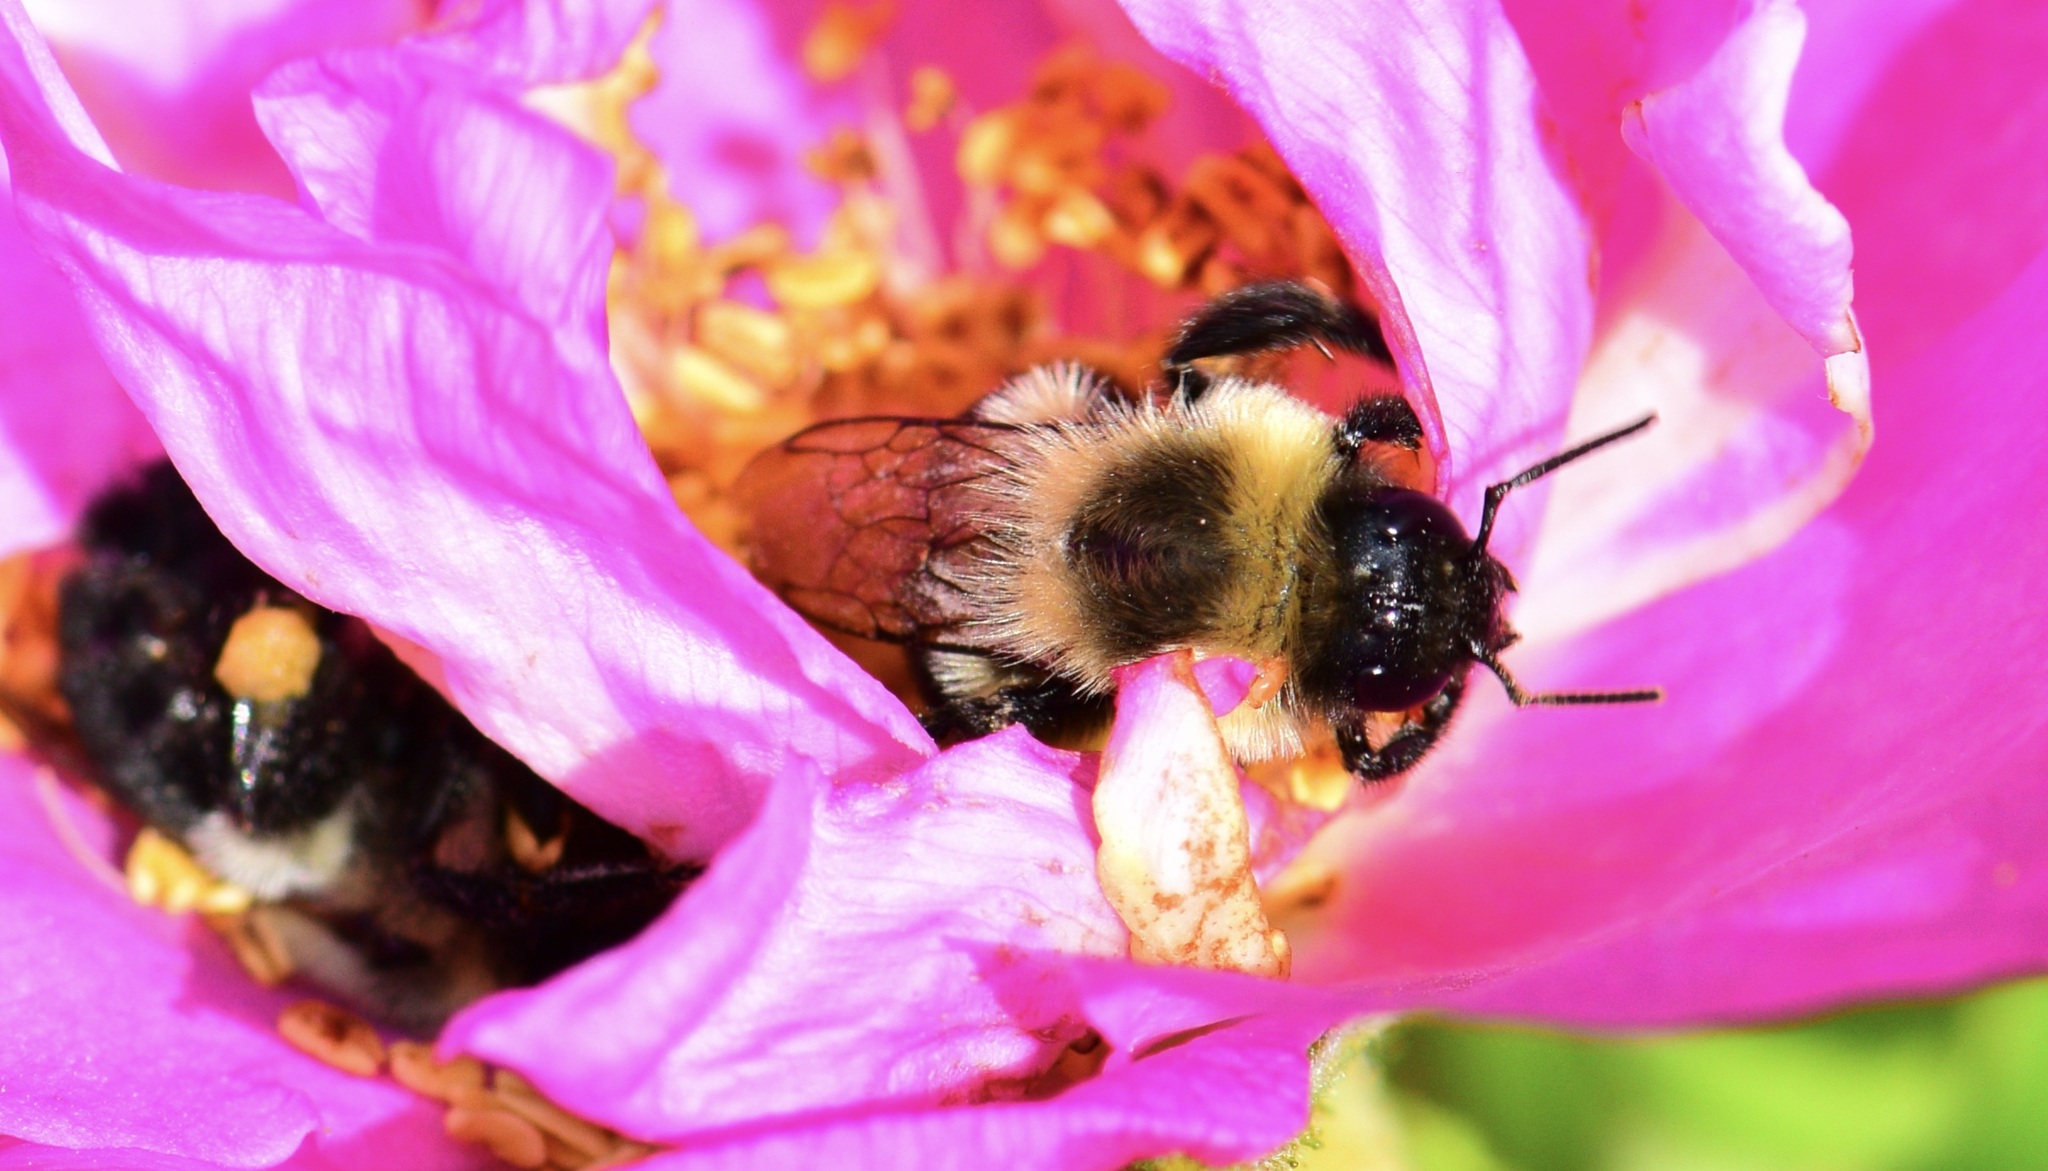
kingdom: Animalia
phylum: Arthropoda
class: Insecta
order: Hymenoptera
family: Apidae
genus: Bombus
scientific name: Bombus impatiens
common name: Common eastern bumble bee
